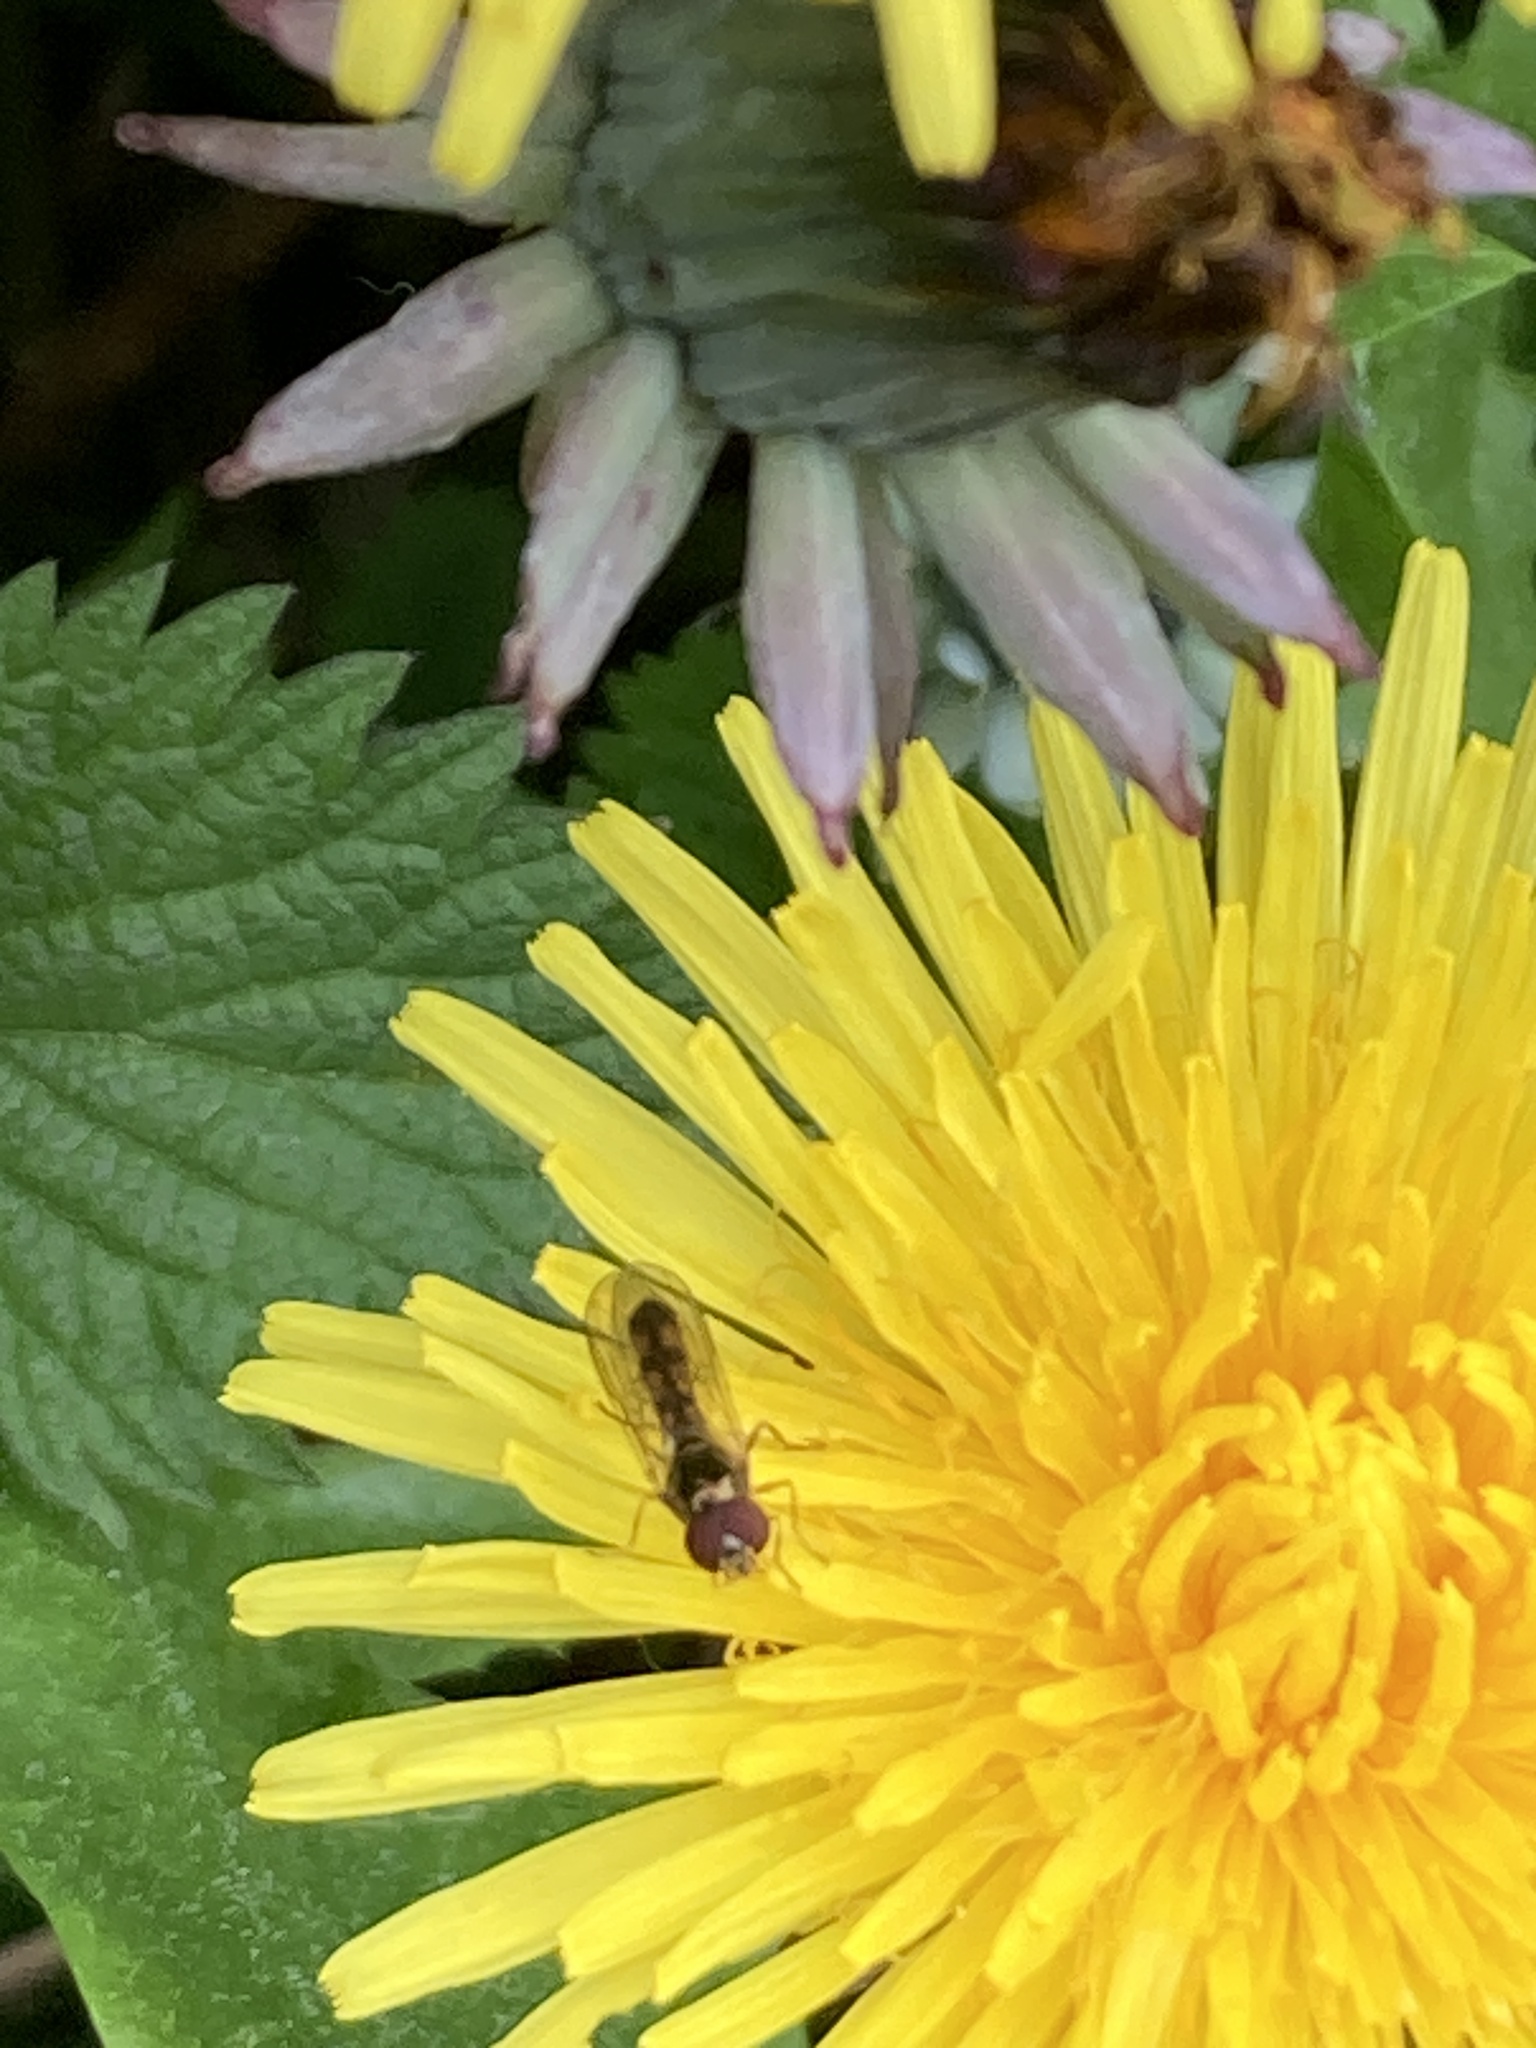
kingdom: Animalia
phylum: Arthropoda
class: Insecta
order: Diptera
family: Syrphidae
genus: Melanostoma
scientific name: Melanostoma scalare
